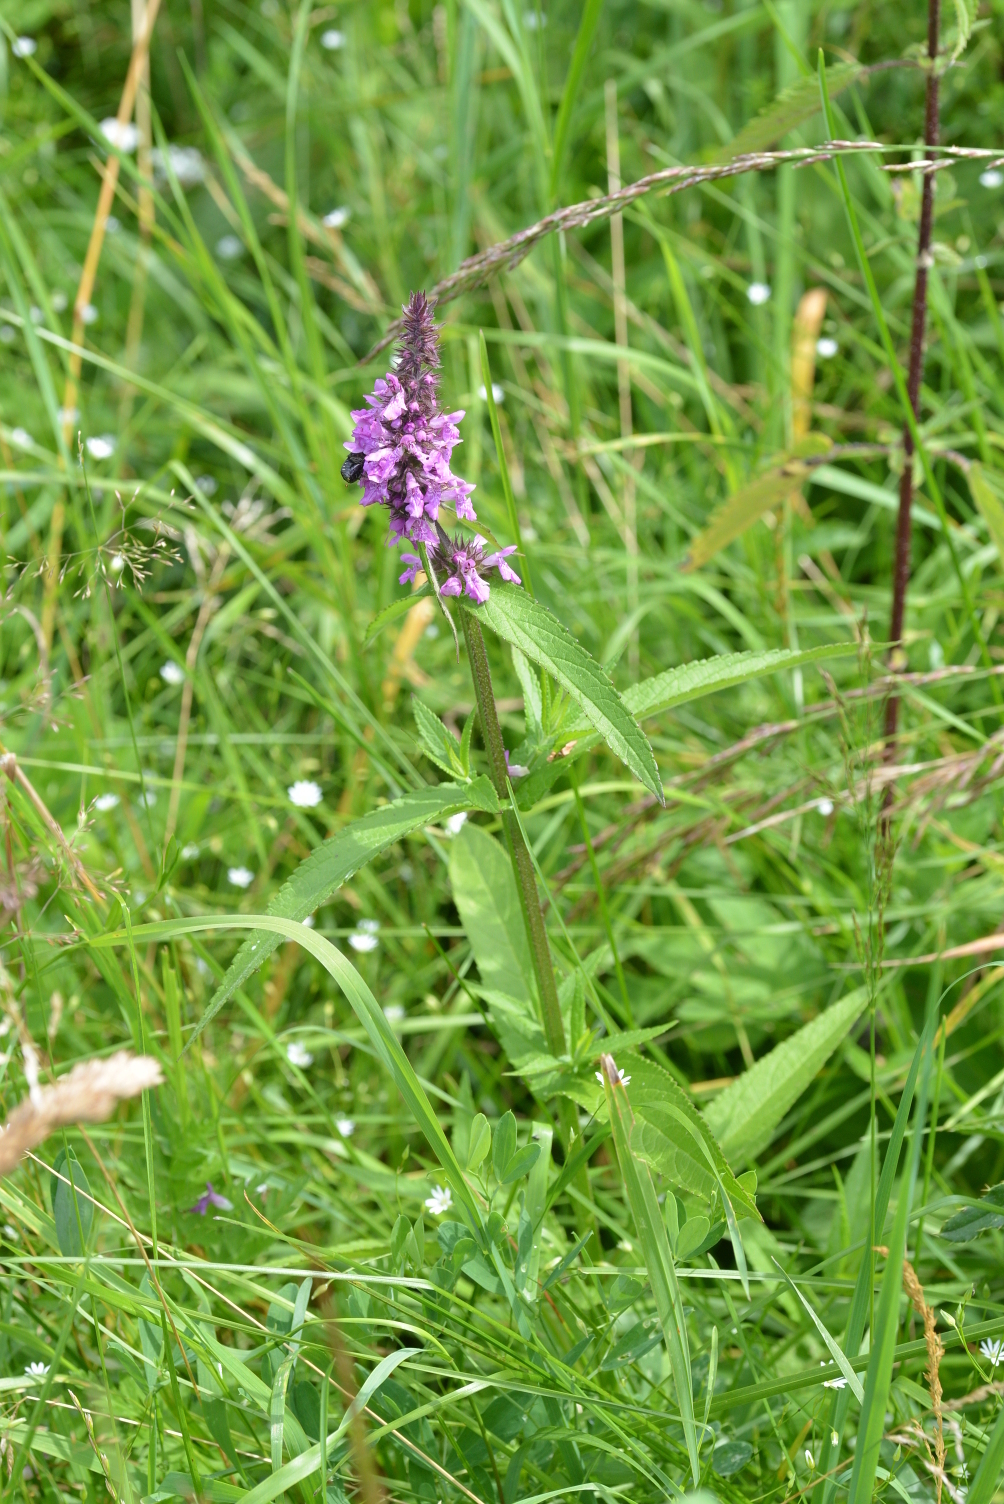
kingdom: Plantae
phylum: Tracheophyta
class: Magnoliopsida
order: Lamiales
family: Lamiaceae
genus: Stachys
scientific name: Stachys palustris
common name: Marsh woundwort
